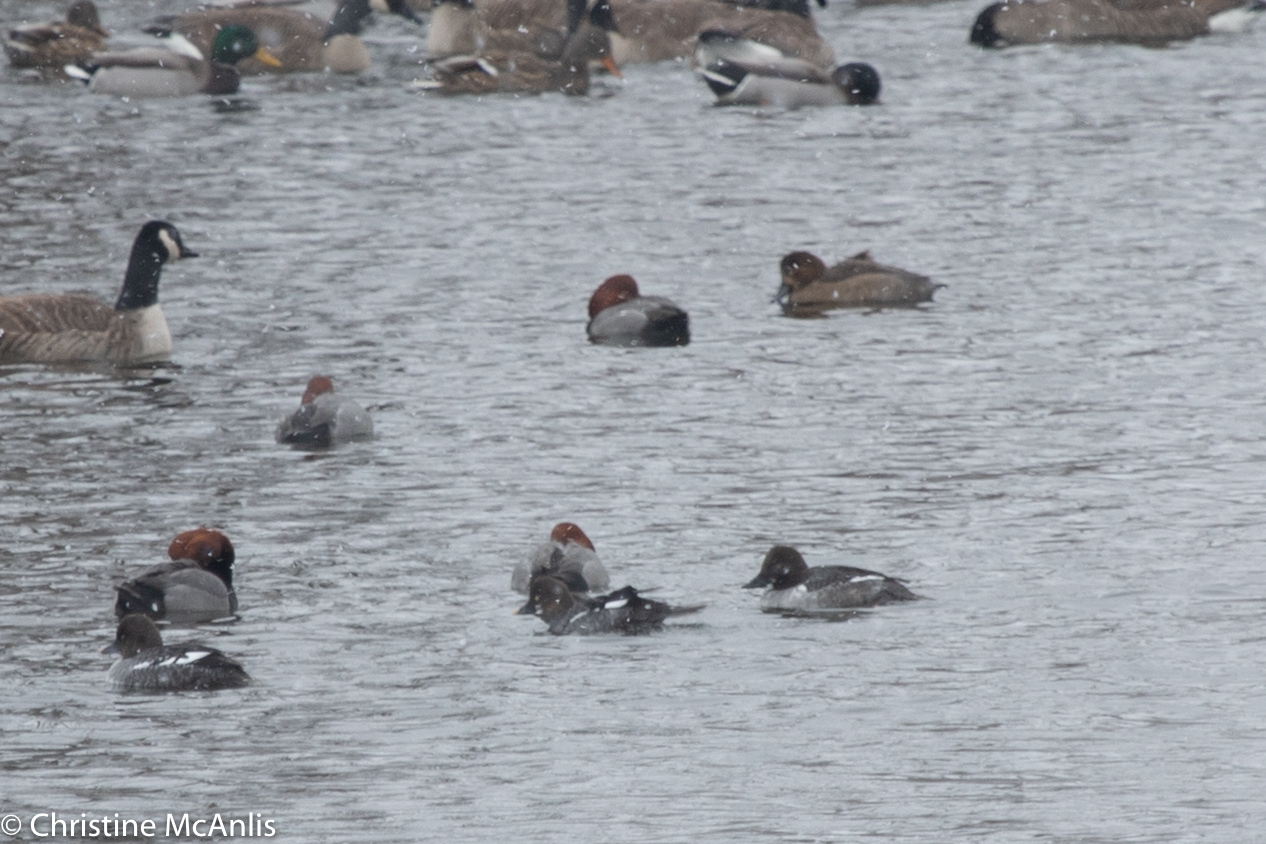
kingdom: Animalia
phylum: Chordata
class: Aves
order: Anseriformes
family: Anatidae
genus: Bucephala
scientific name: Bucephala clangula
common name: Common goldeneye
